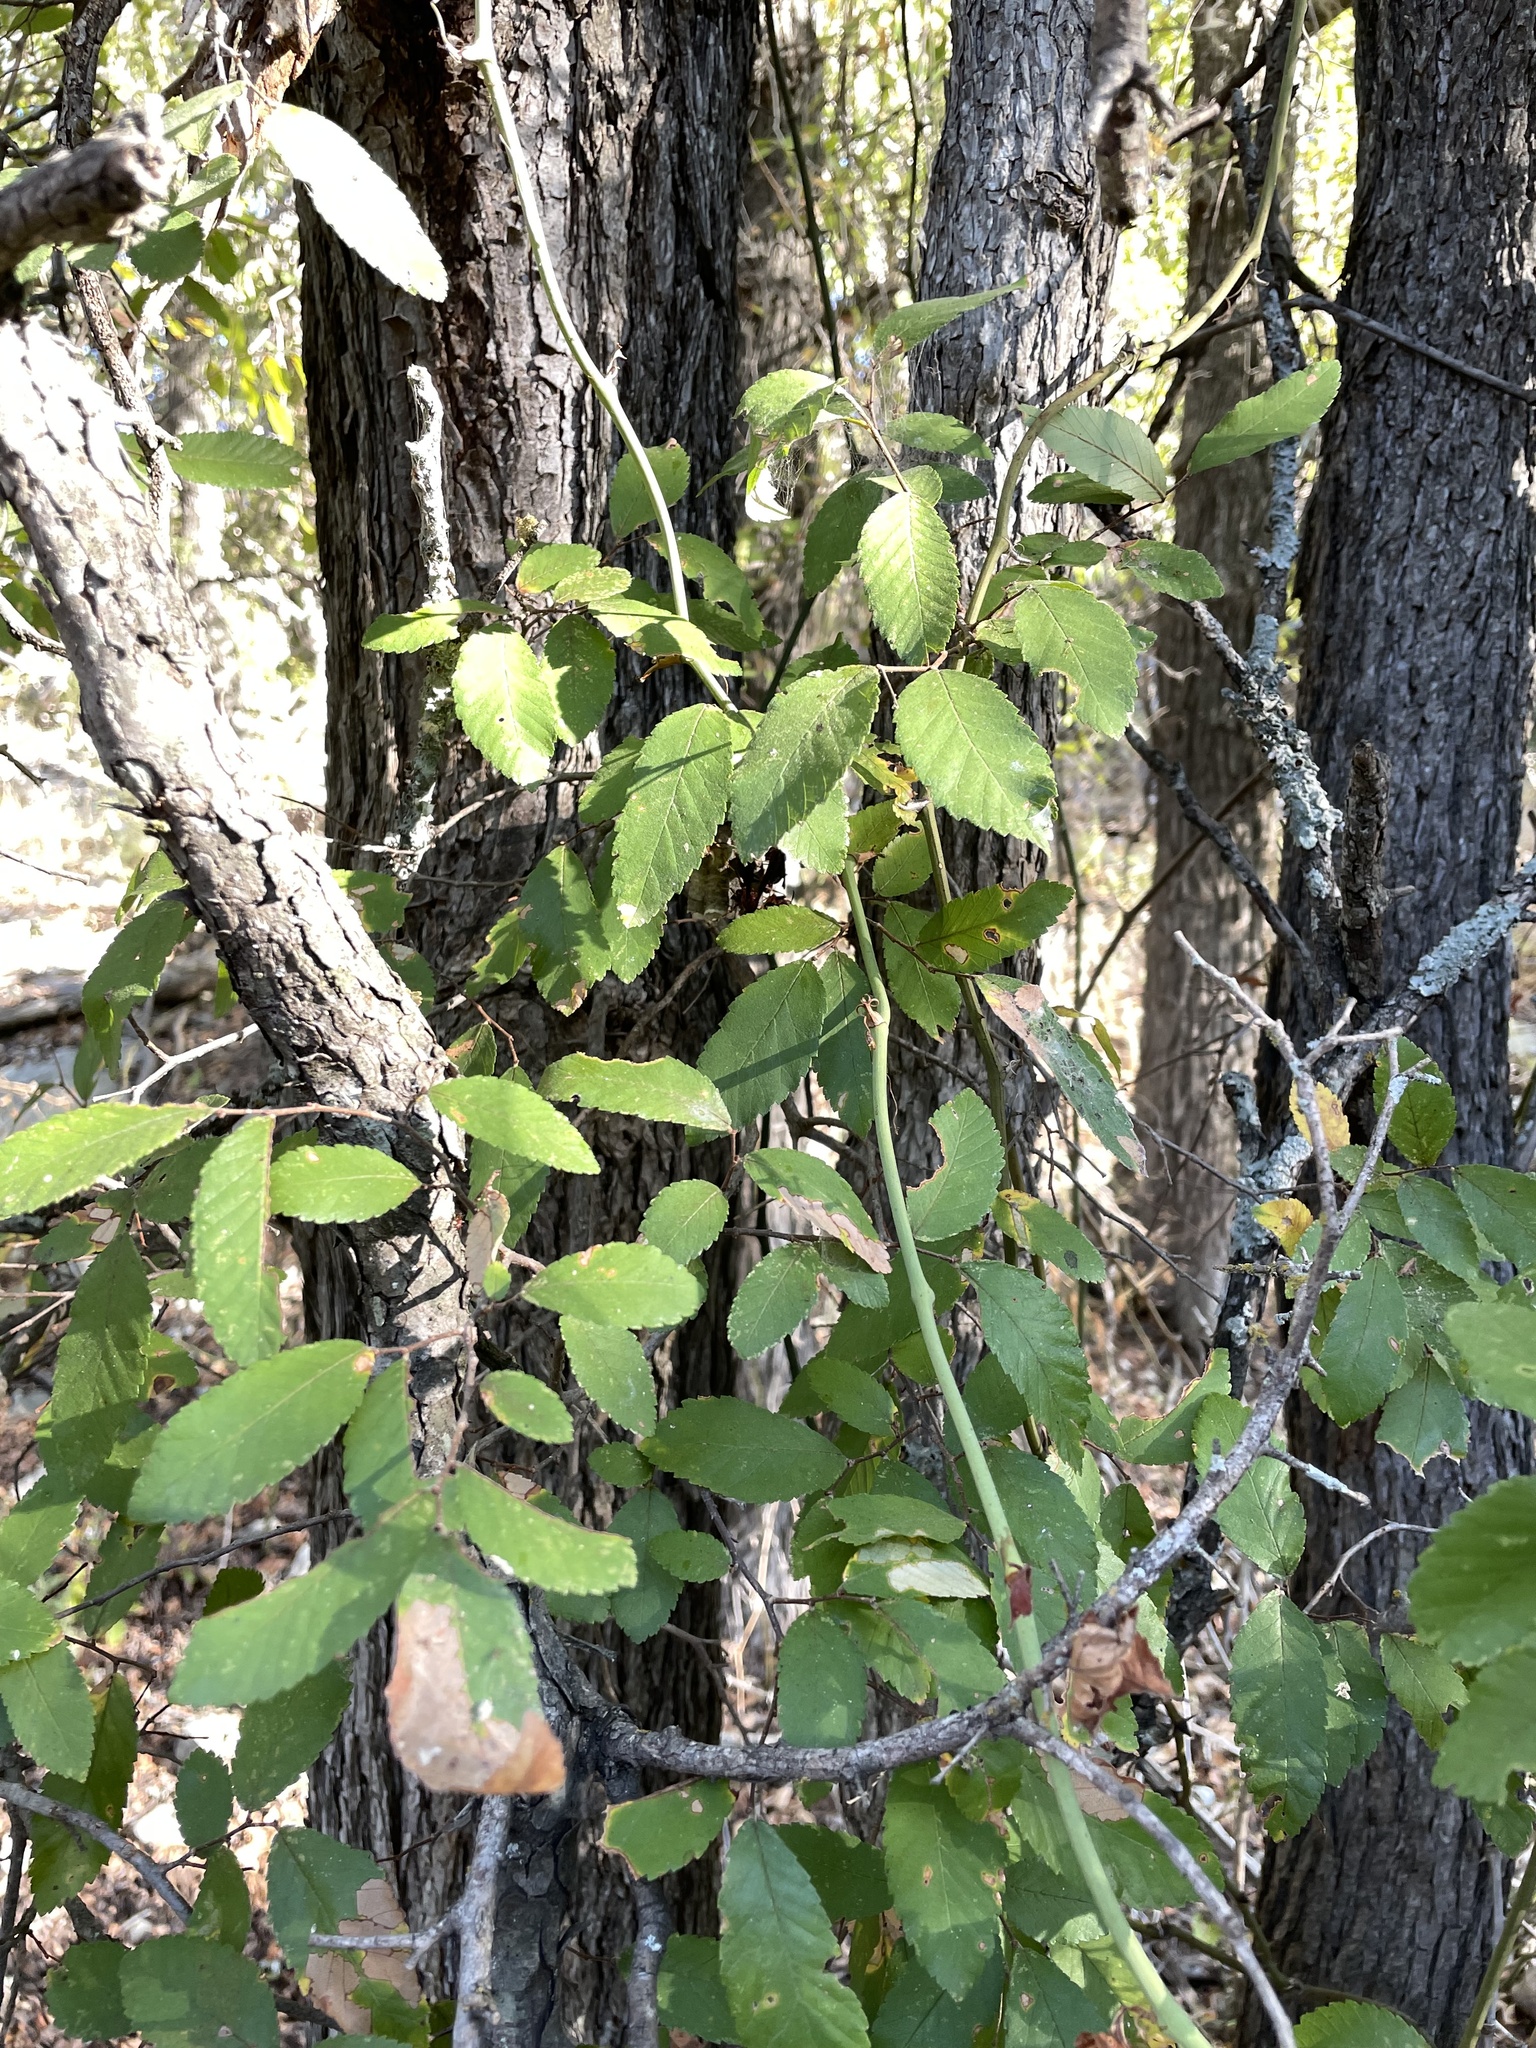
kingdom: Plantae
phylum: Tracheophyta
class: Magnoliopsida
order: Rosales
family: Ulmaceae
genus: Ulmus
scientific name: Ulmus crassifolia
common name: Basket elm
